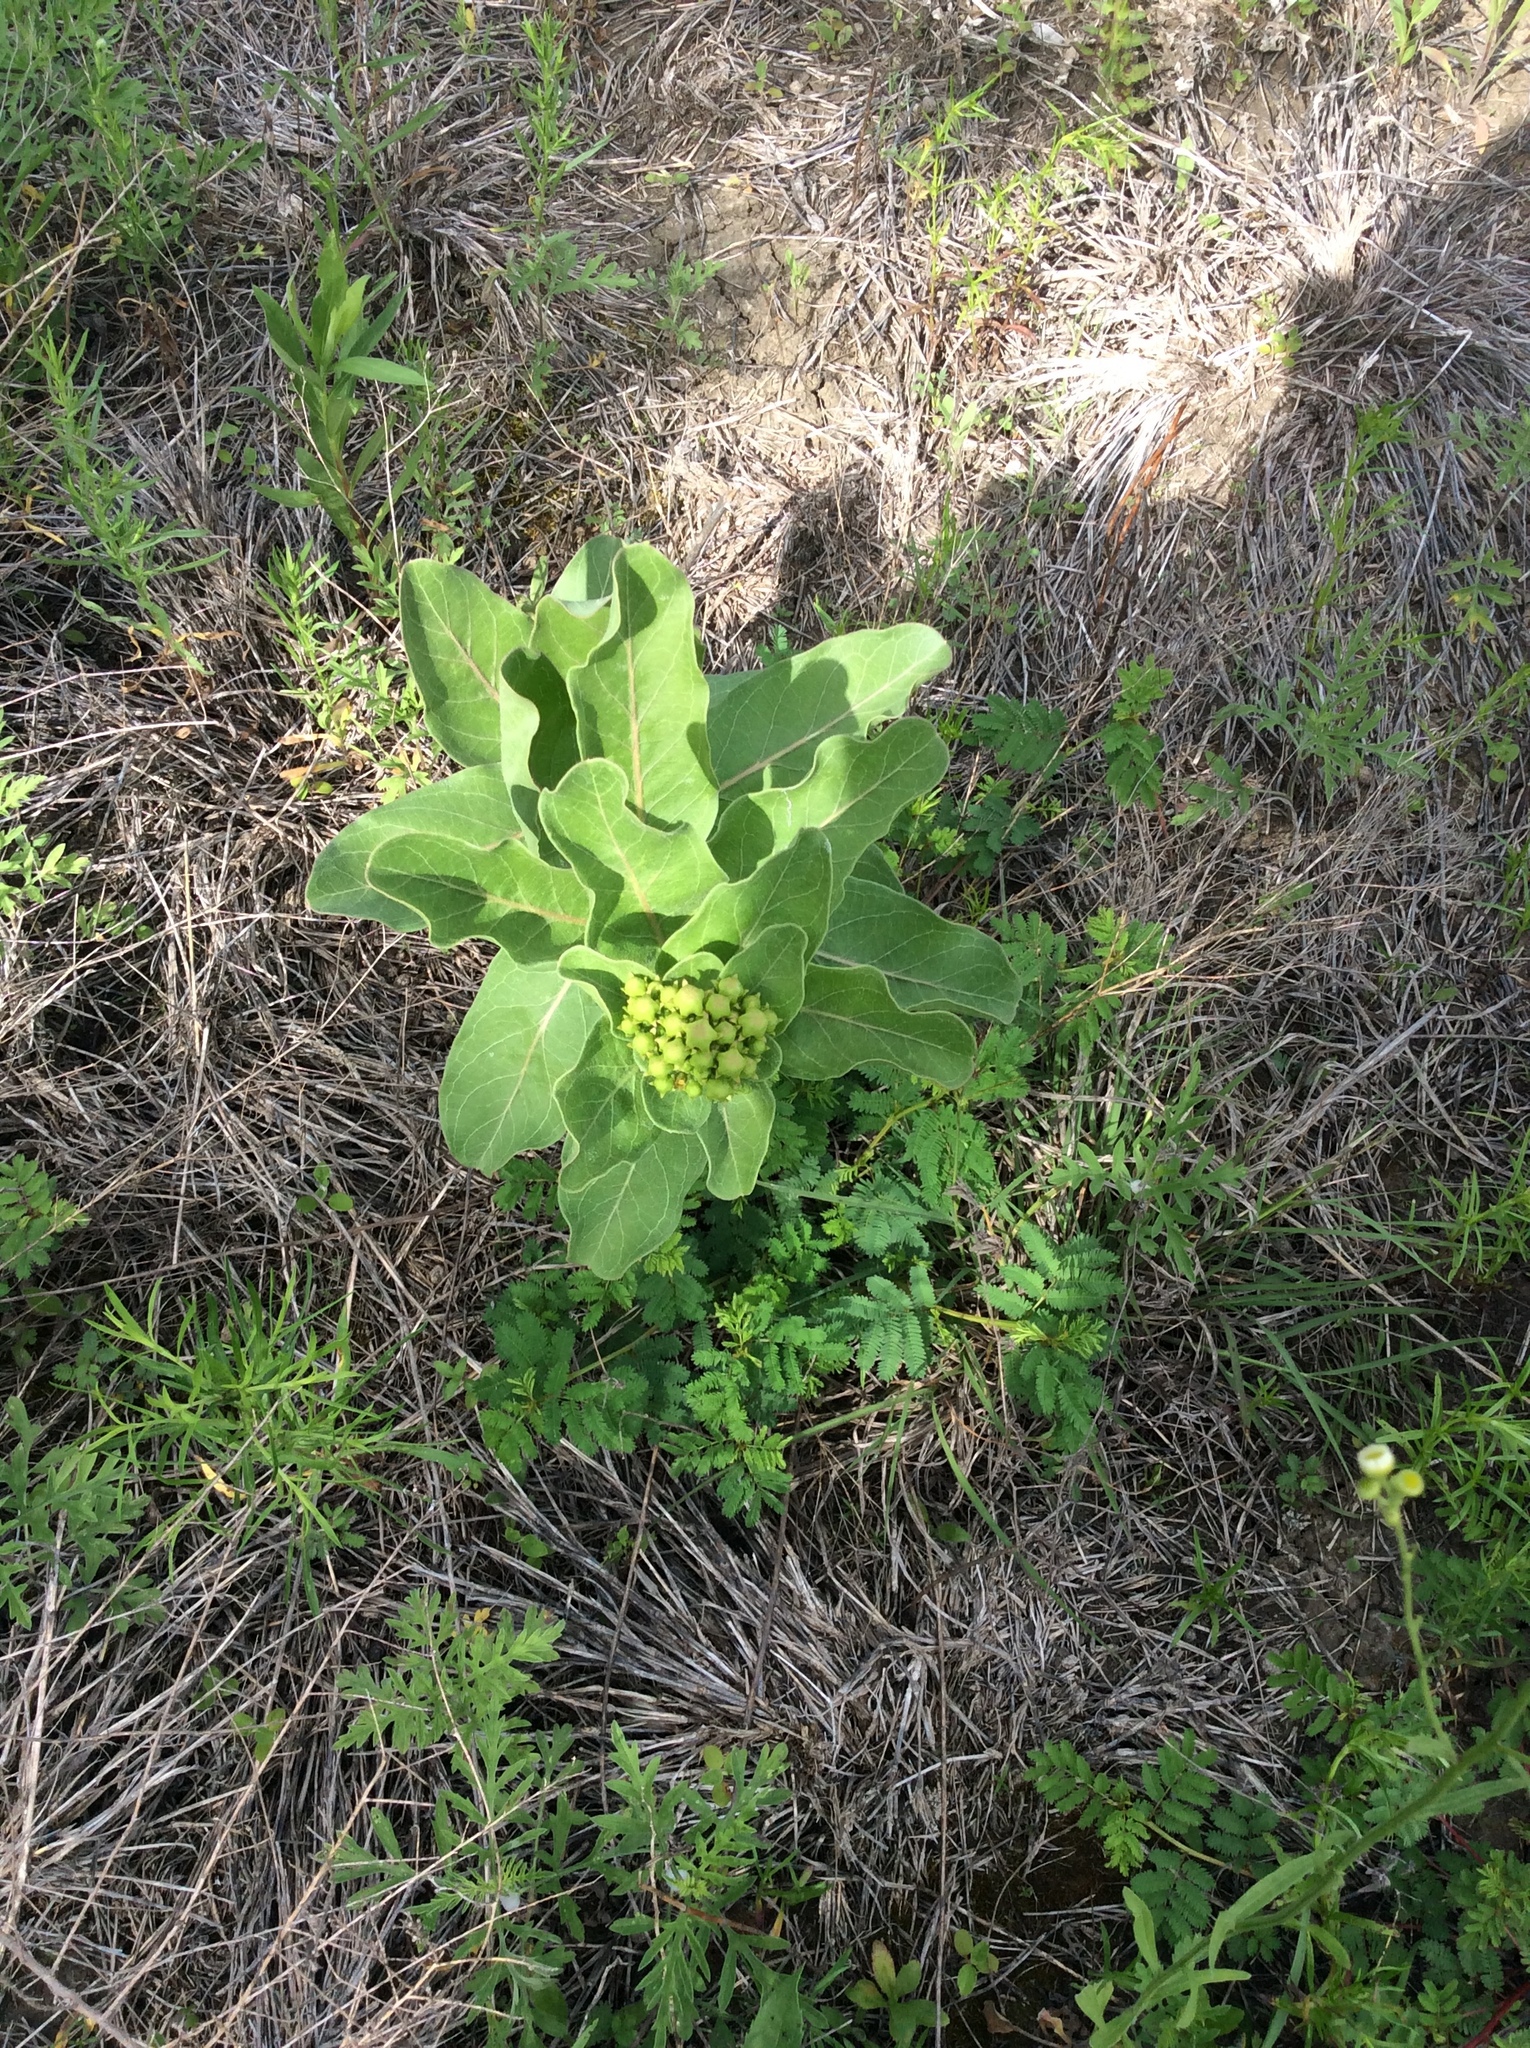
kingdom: Plantae
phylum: Tracheophyta
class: Magnoliopsida
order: Gentianales
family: Apocynaceae
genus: Asclepias
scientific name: Asclepias viridis
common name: Antelope-horns
